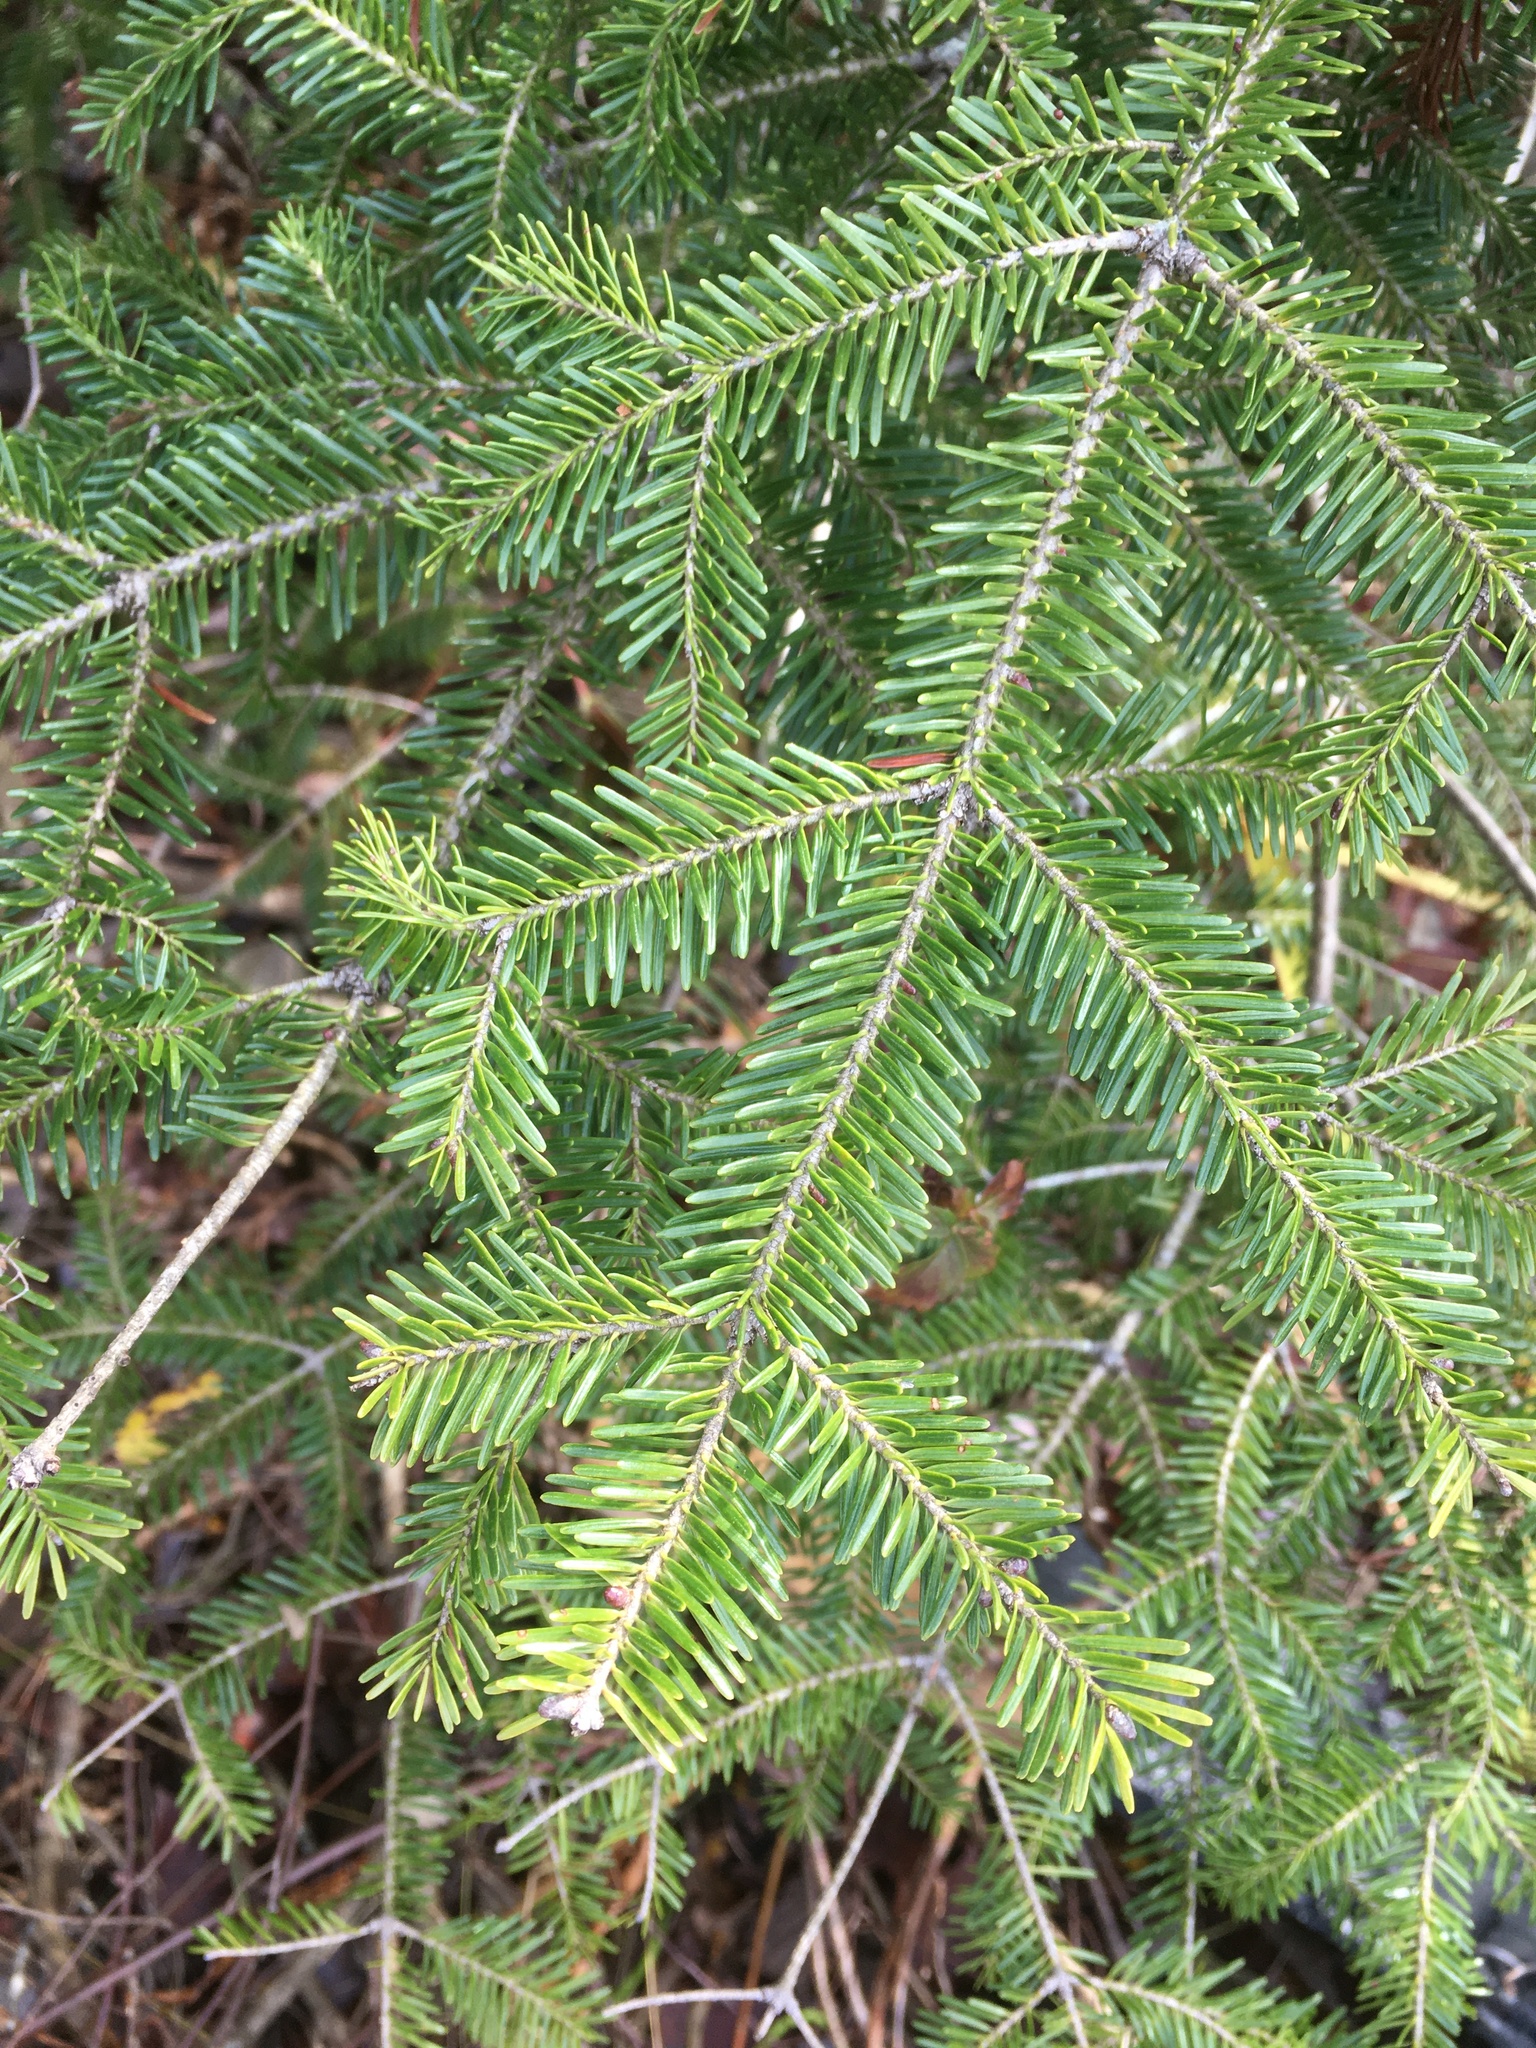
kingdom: Plantae
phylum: Tracheophyta
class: Pinopsida
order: Pinales
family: Pinaceae
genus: Abies
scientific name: Abies balsamea
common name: Balsam fir
